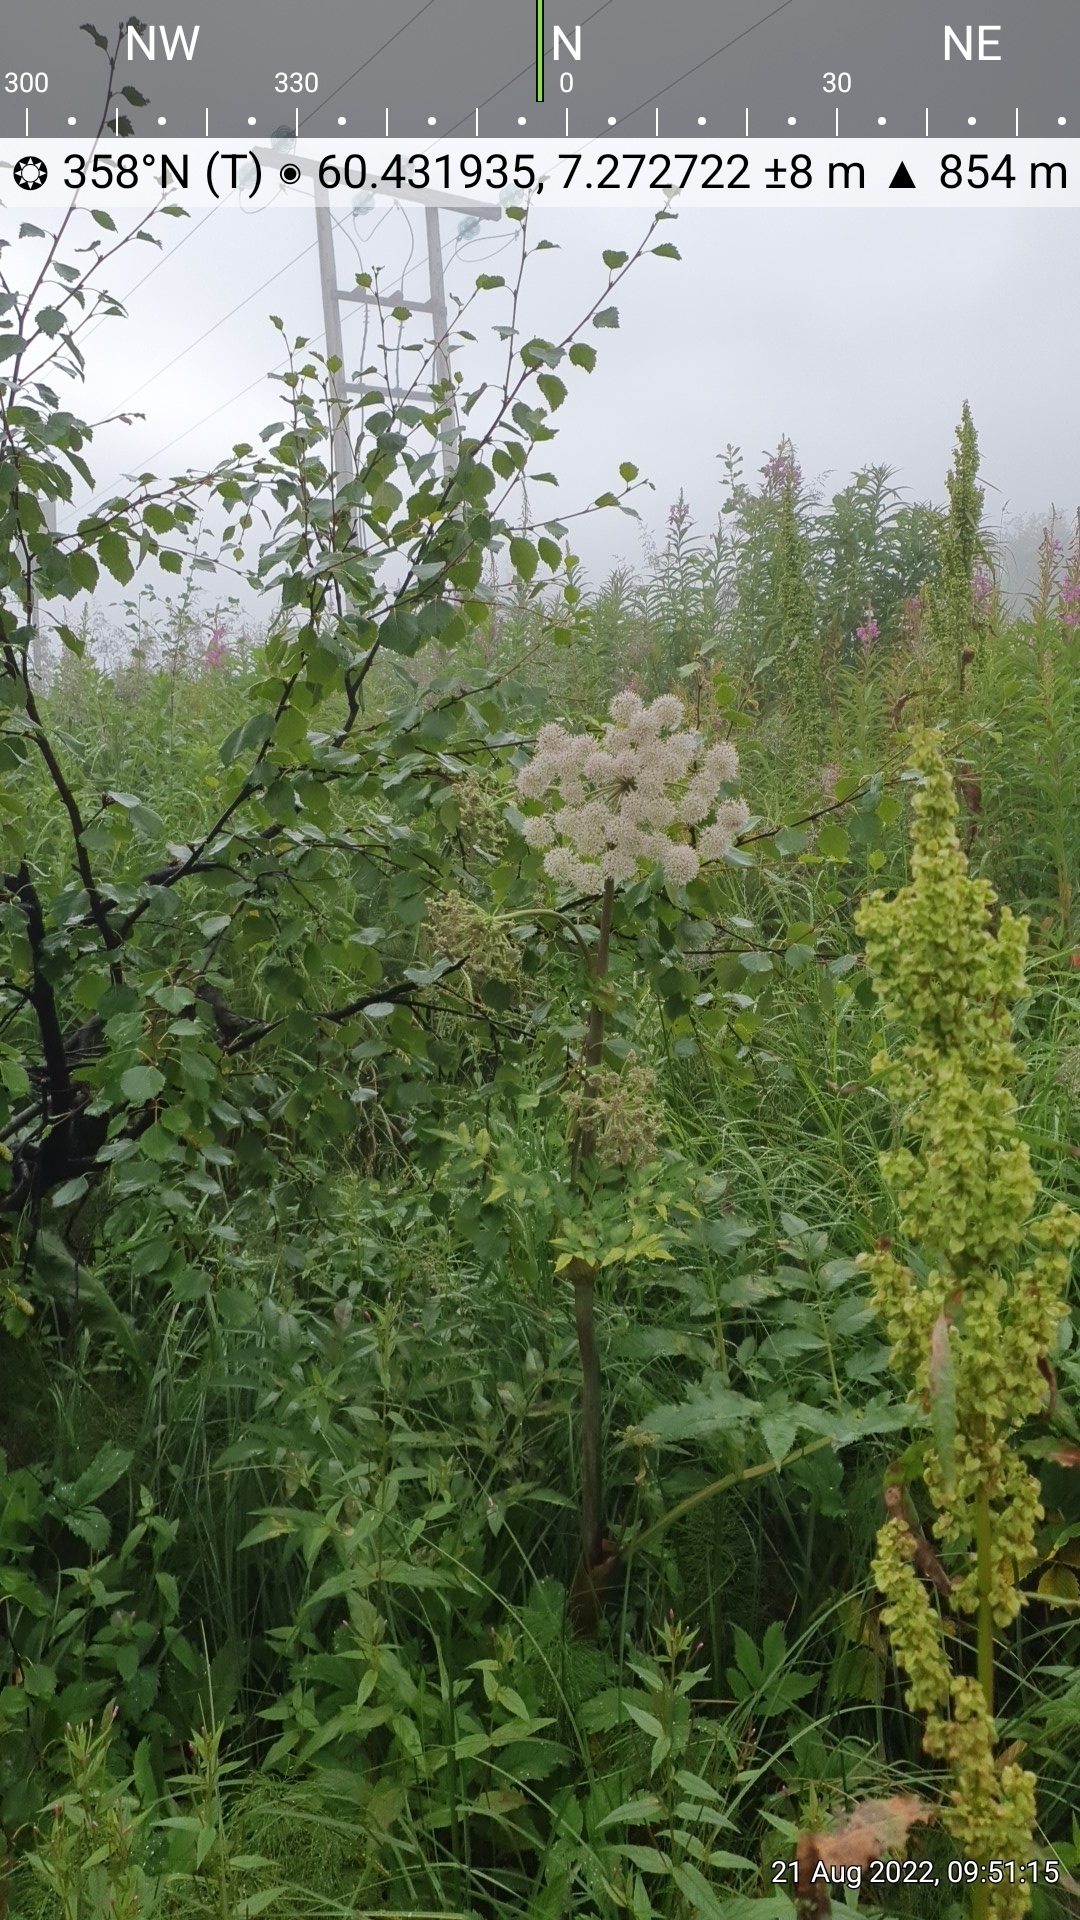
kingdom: Plantae
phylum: Tracheophyta
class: Magnoliopsida
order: Apiales
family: Apiaceae
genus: Angelica
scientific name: Angelica sylvestris
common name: Wild angelica
